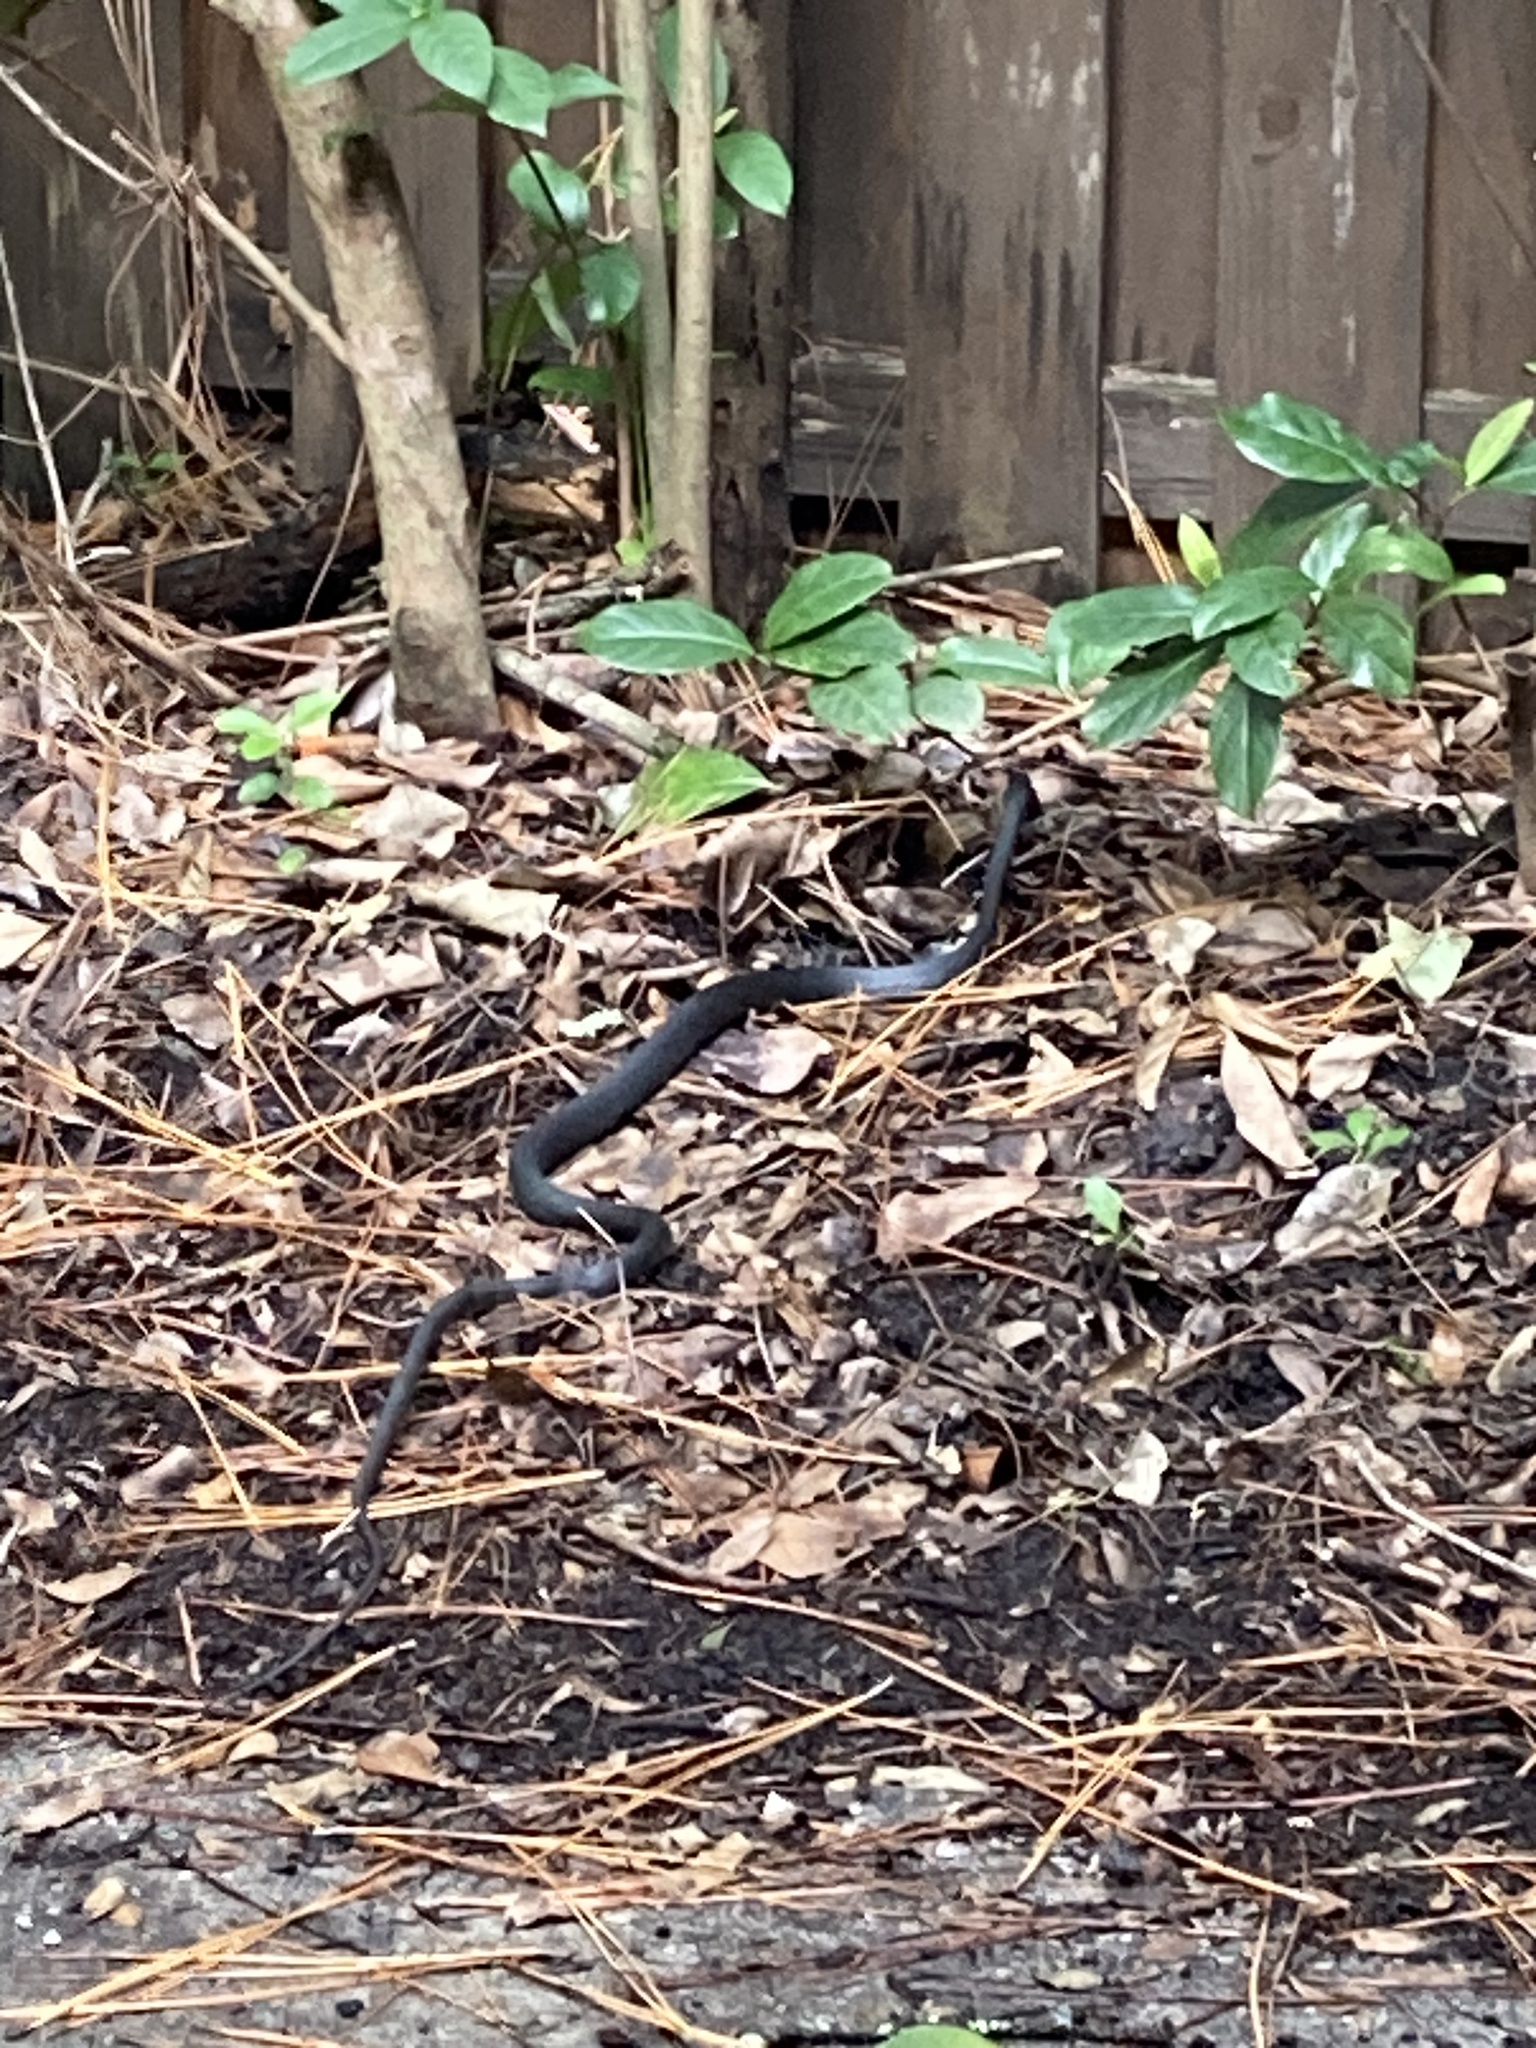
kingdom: Animalia
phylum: Chordata
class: Squamata
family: Colubridae
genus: Coluber
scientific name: Coluber constrictor
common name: Eastern racer
